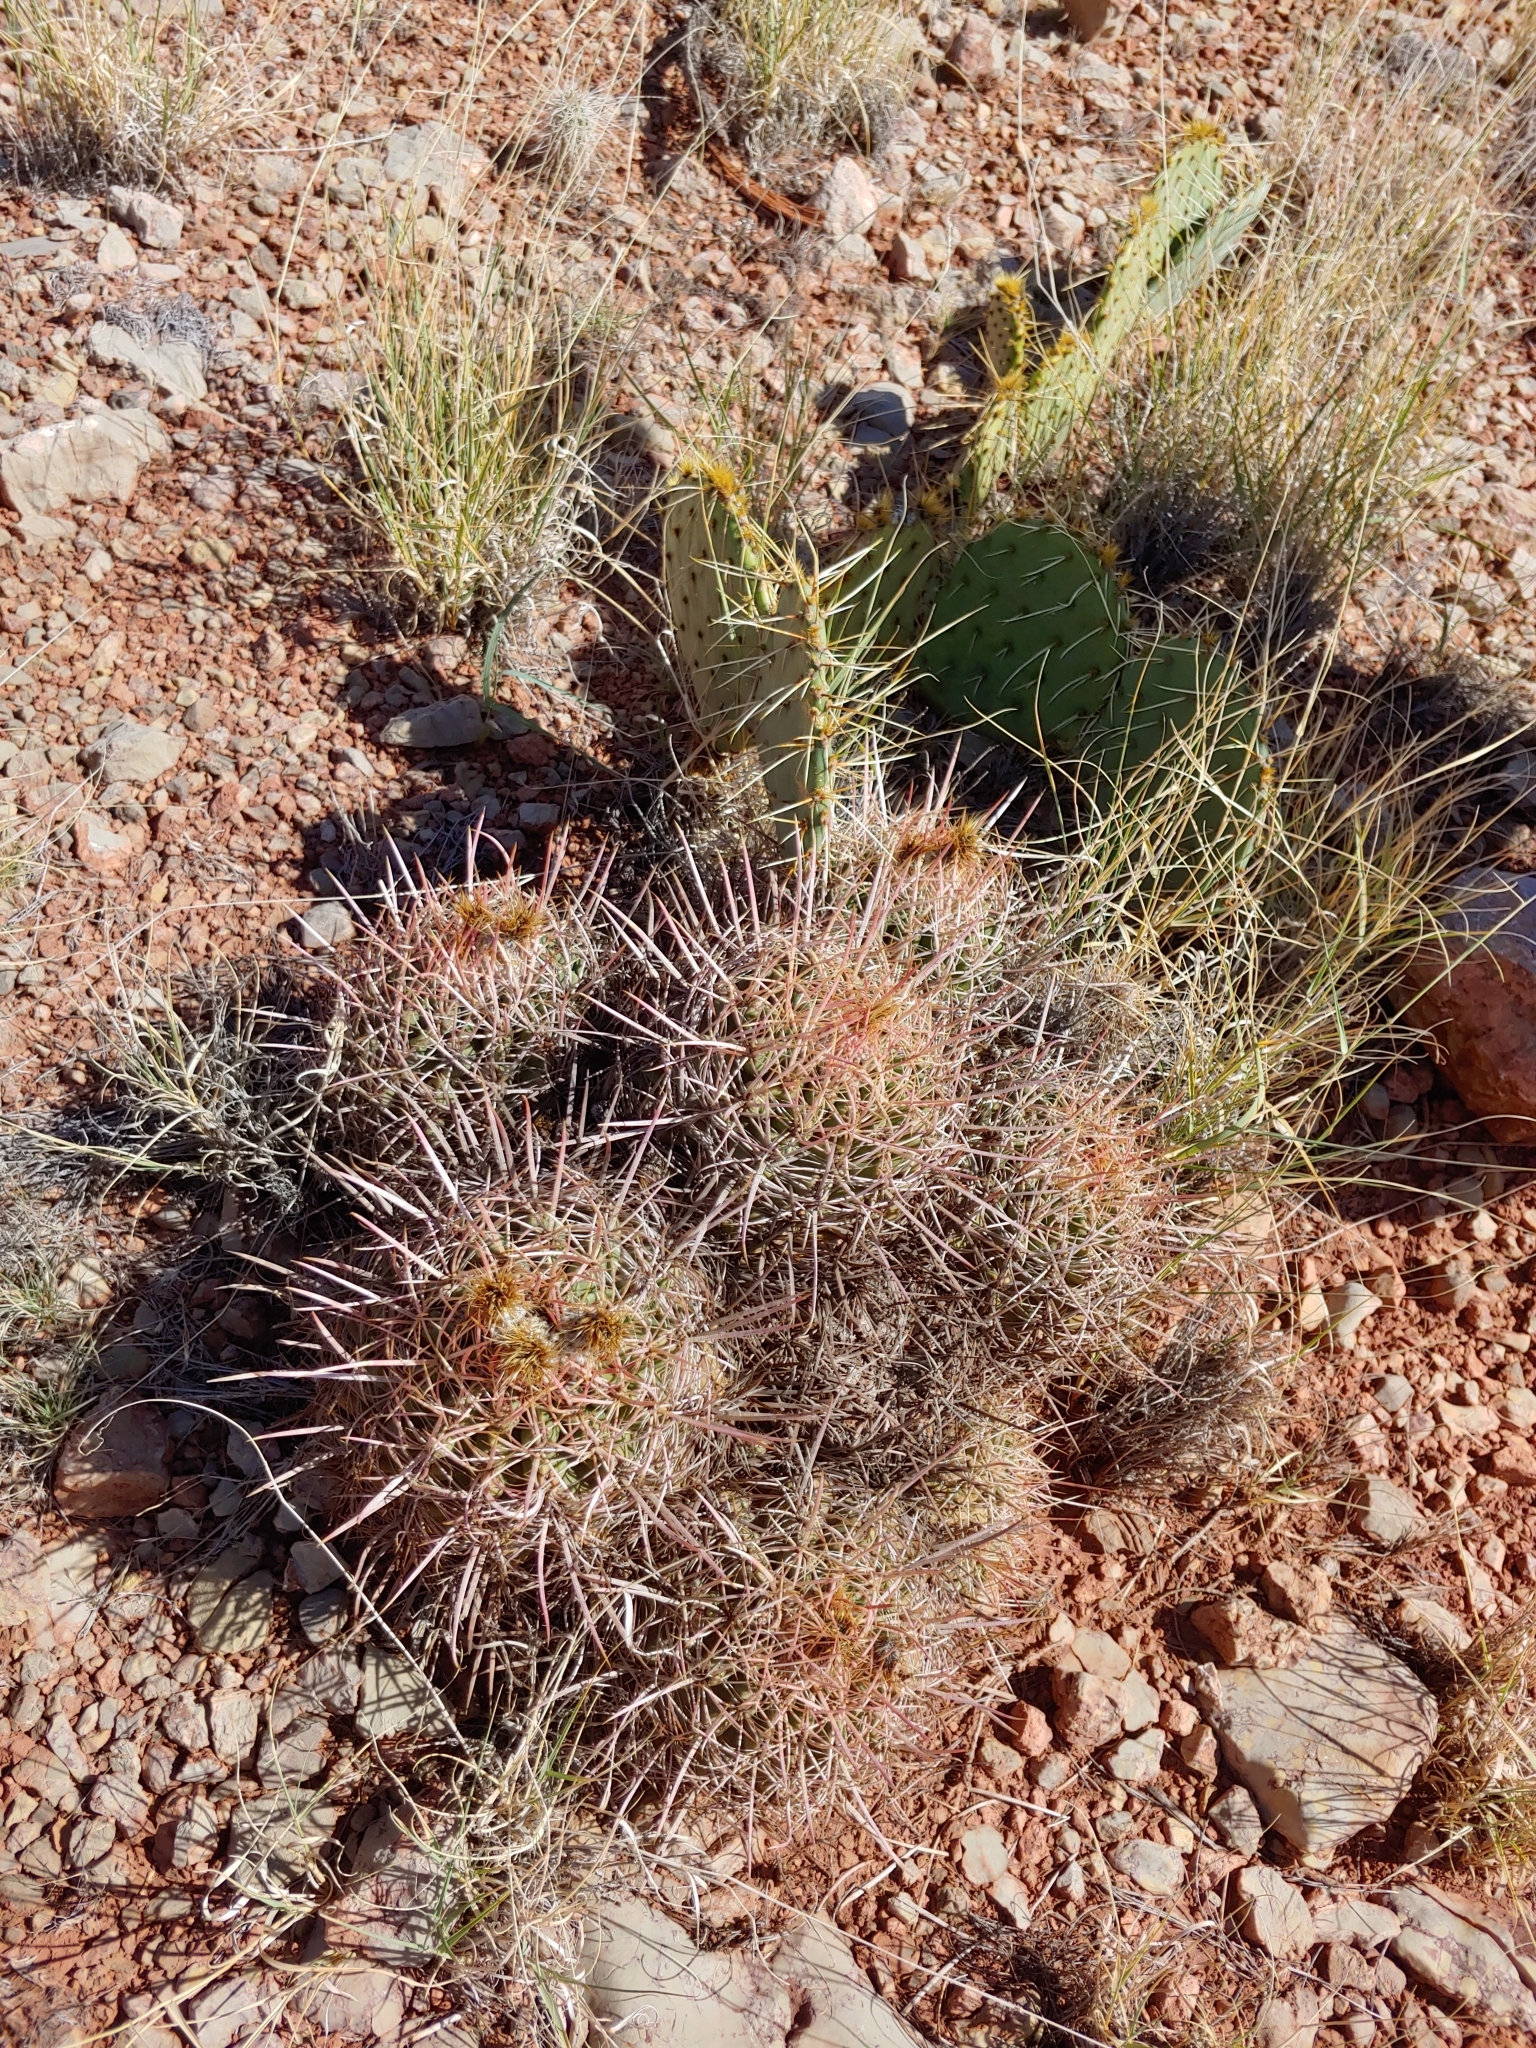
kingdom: Plantae
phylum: Tracheophyta
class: Magnoliopsida
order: Caryophyllales
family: Cactaceae
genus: Echinocactus
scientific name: Echinocactus polycephalus
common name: Cottontop cactus
